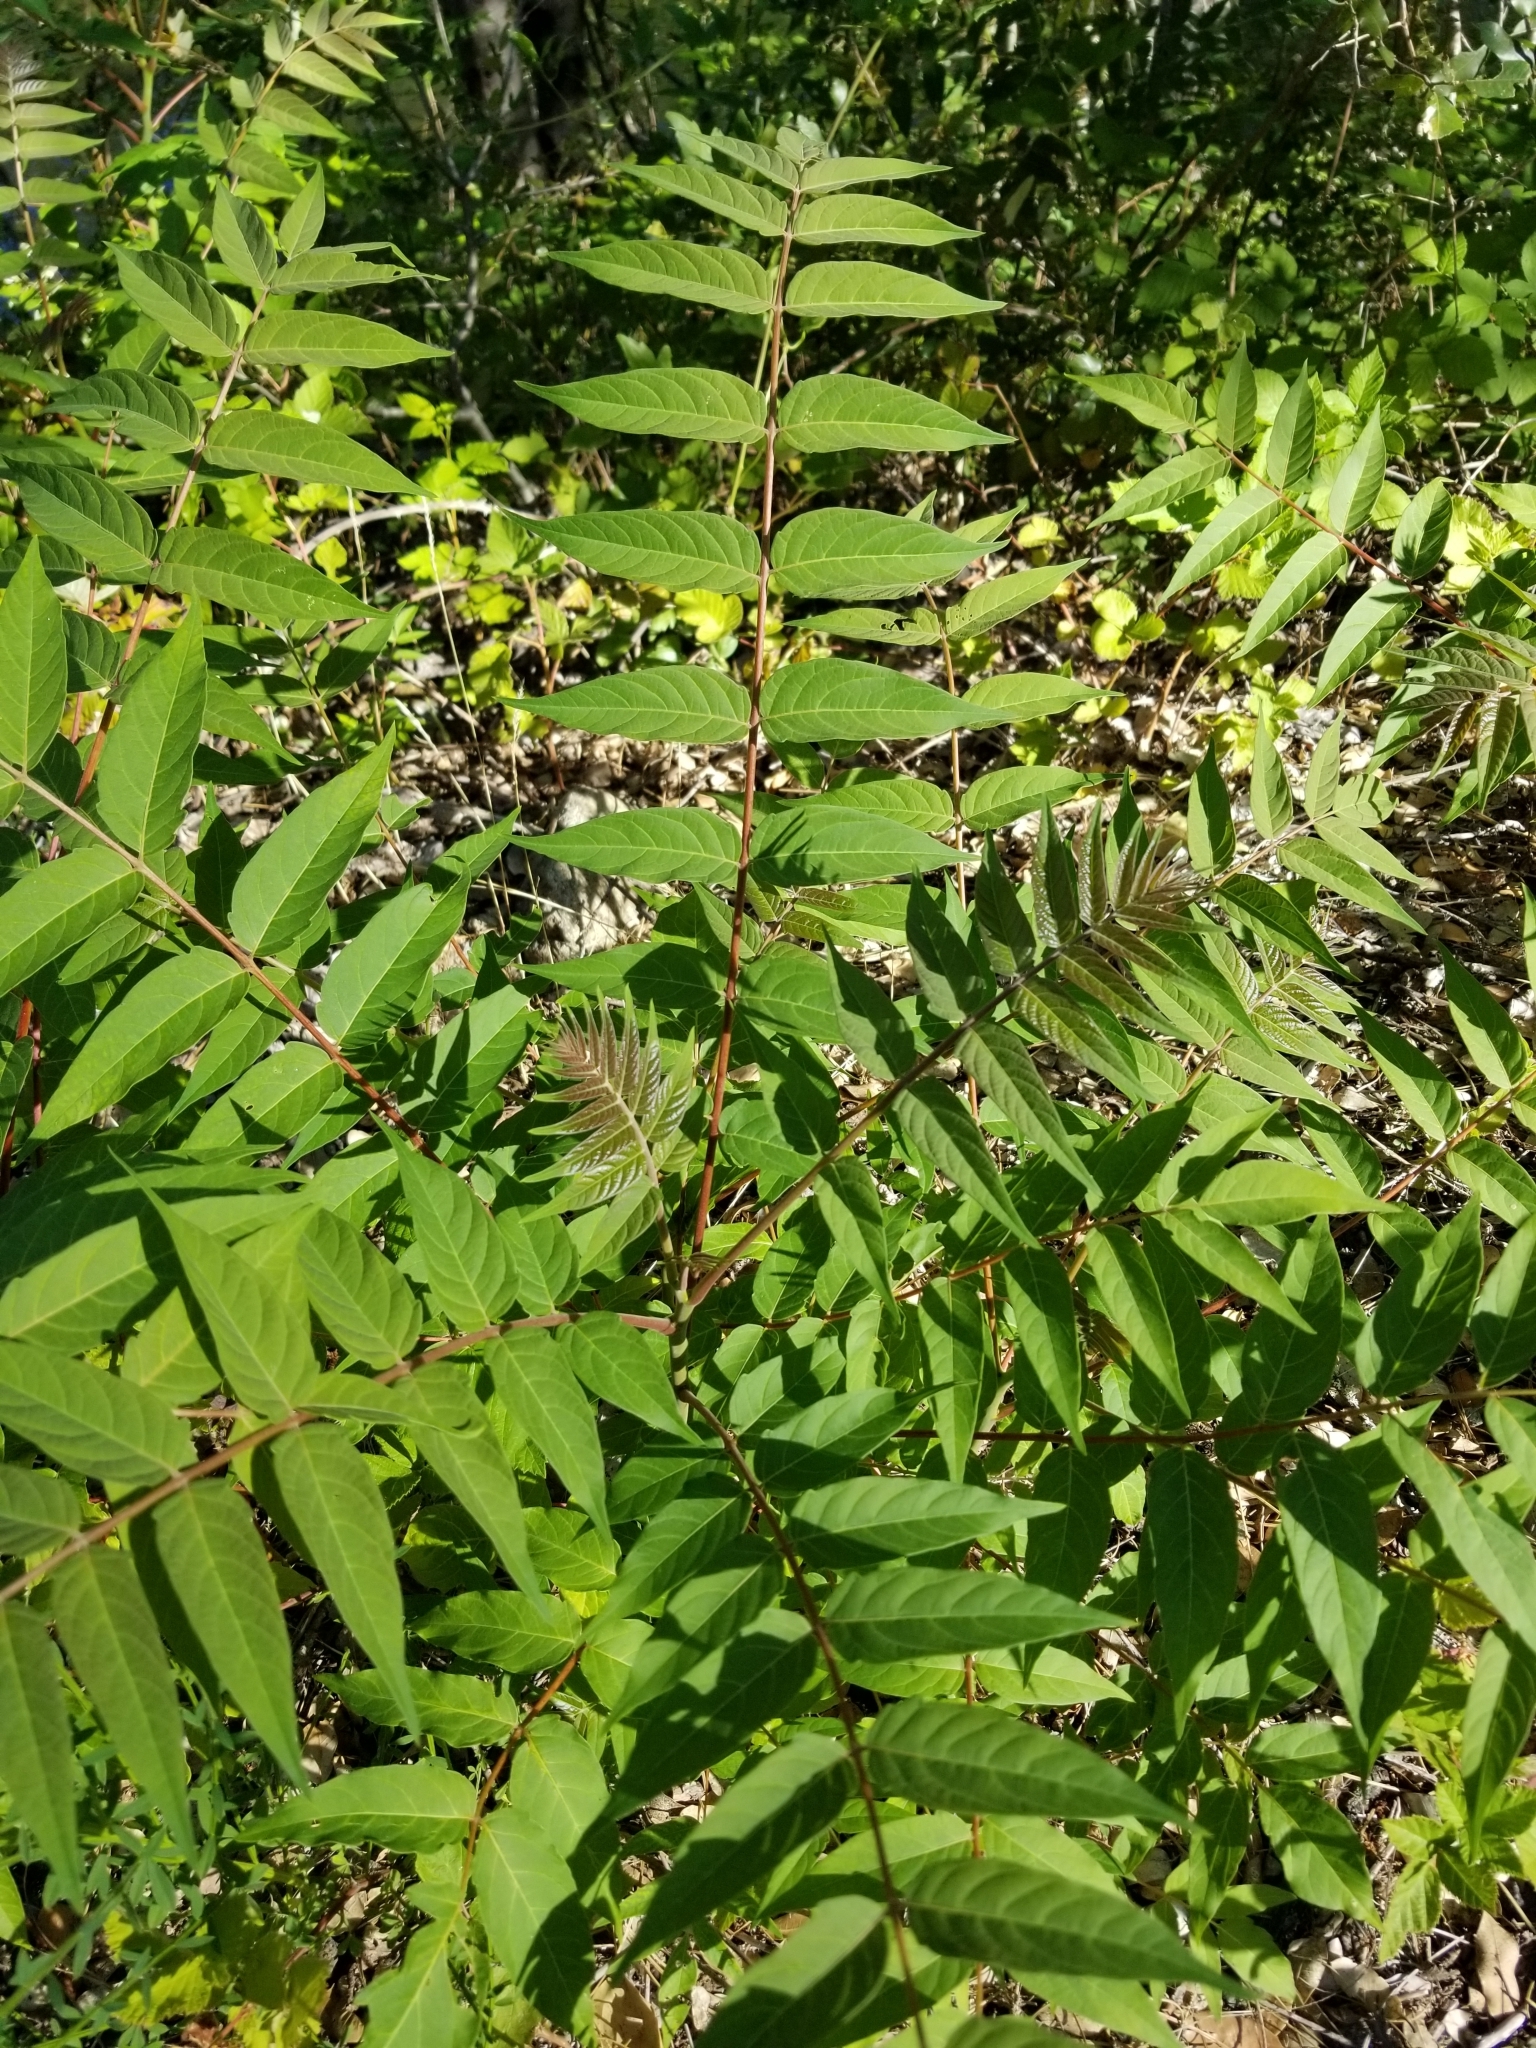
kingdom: Plantae
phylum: Tracheophyta
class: Magnoliopsida
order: Sapindales
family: Simaroubaceae
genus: Ailanthus
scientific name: Ailanthus altissima
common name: Tree-of-heaven
